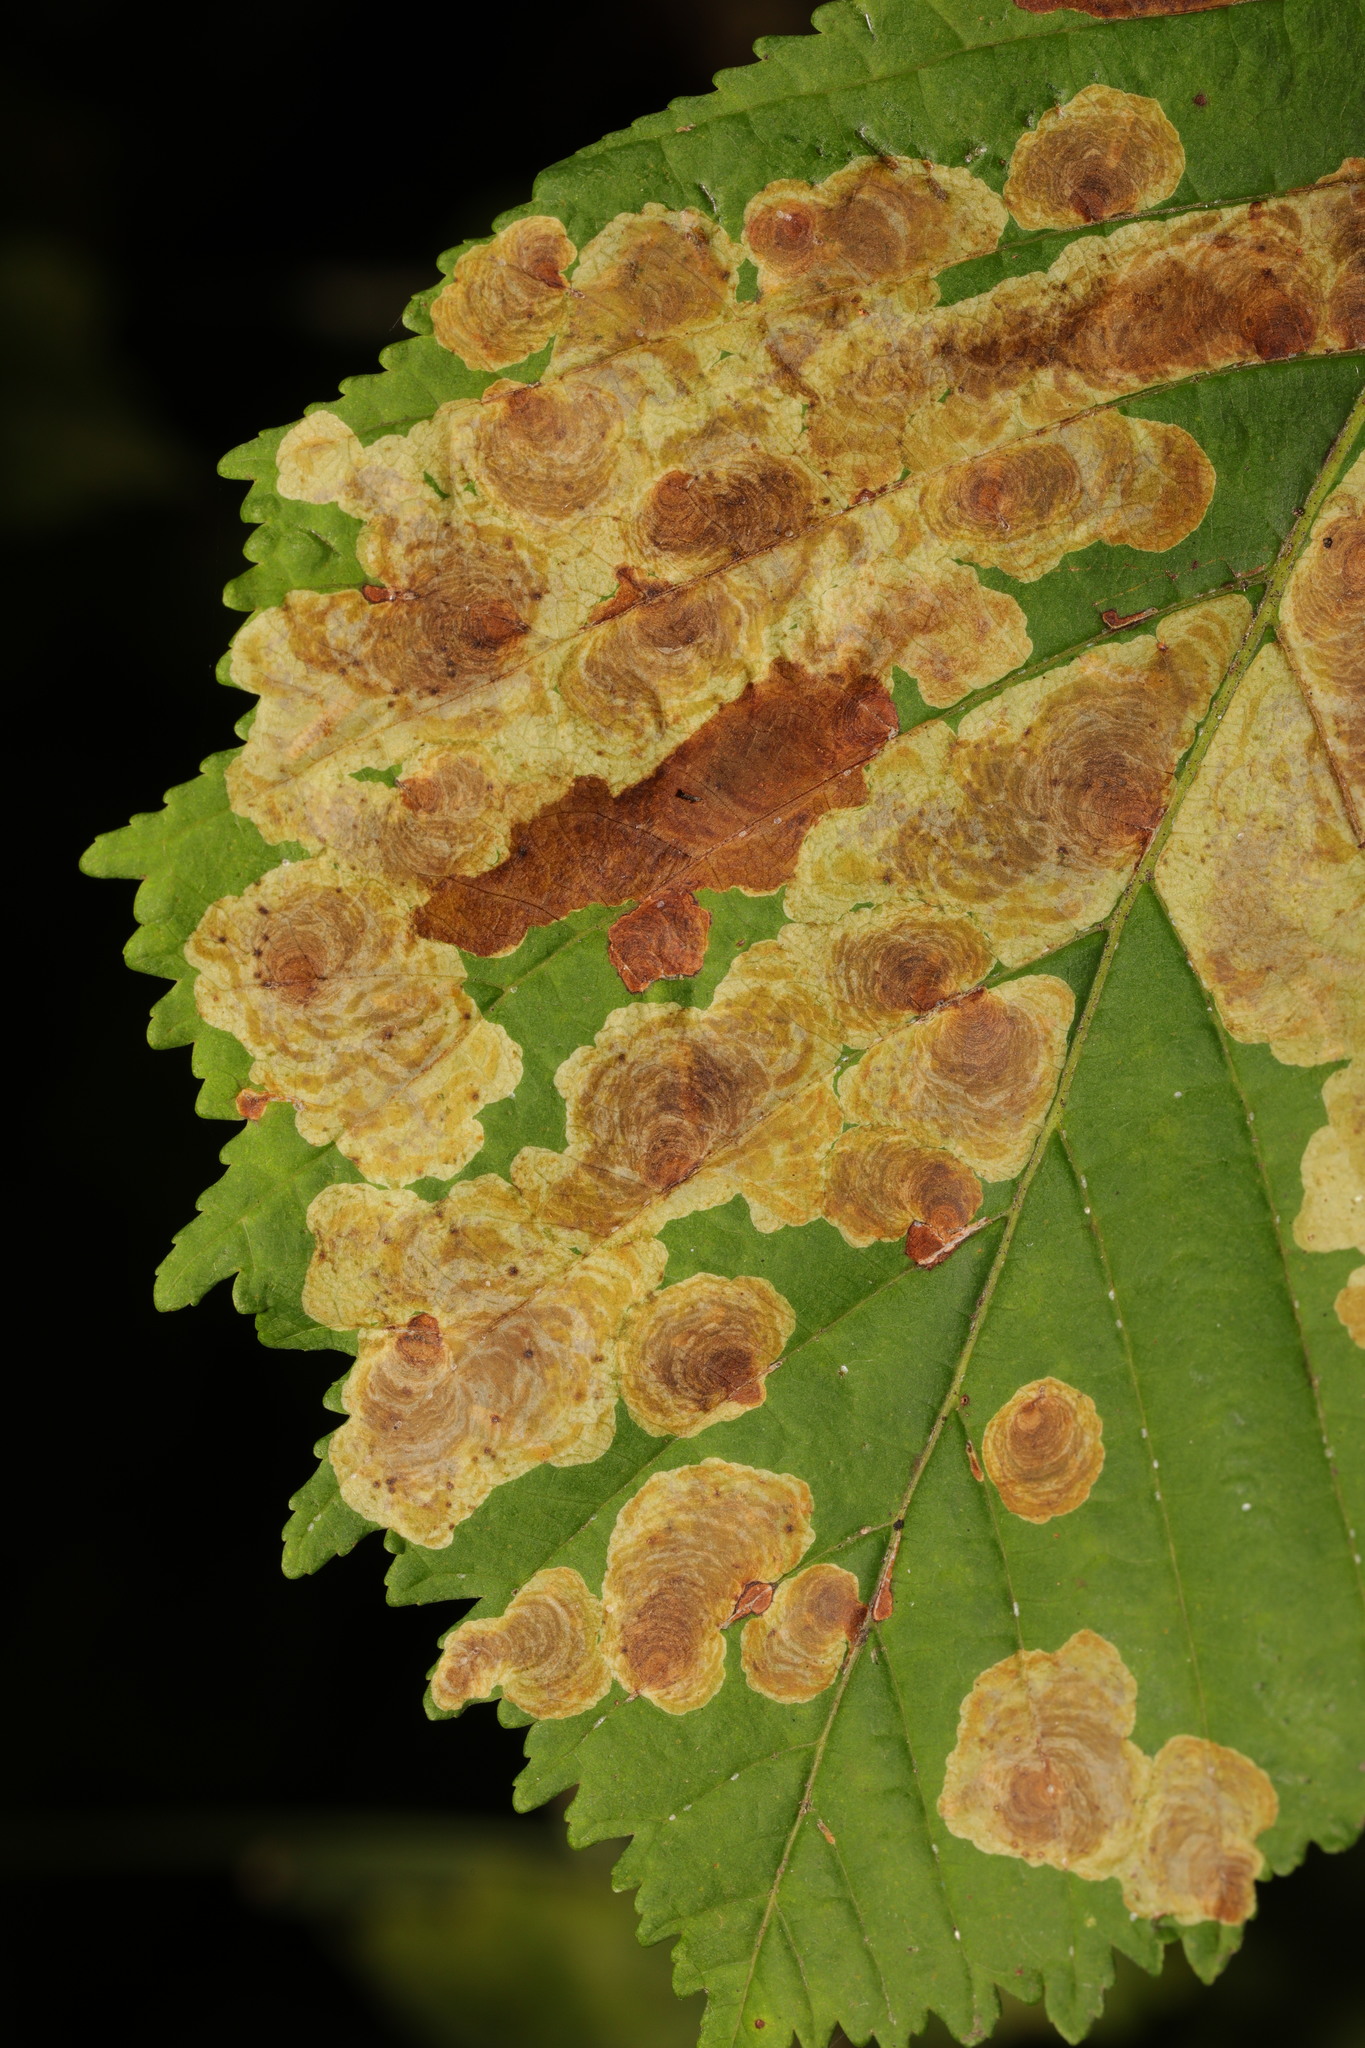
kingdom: Animalia
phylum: Arthropoda
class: Insecta
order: Lepidoptera
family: Gracillariidae
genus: Cameraria
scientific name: Cameraria ohridella
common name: Horse-chestnut leaf-miner
